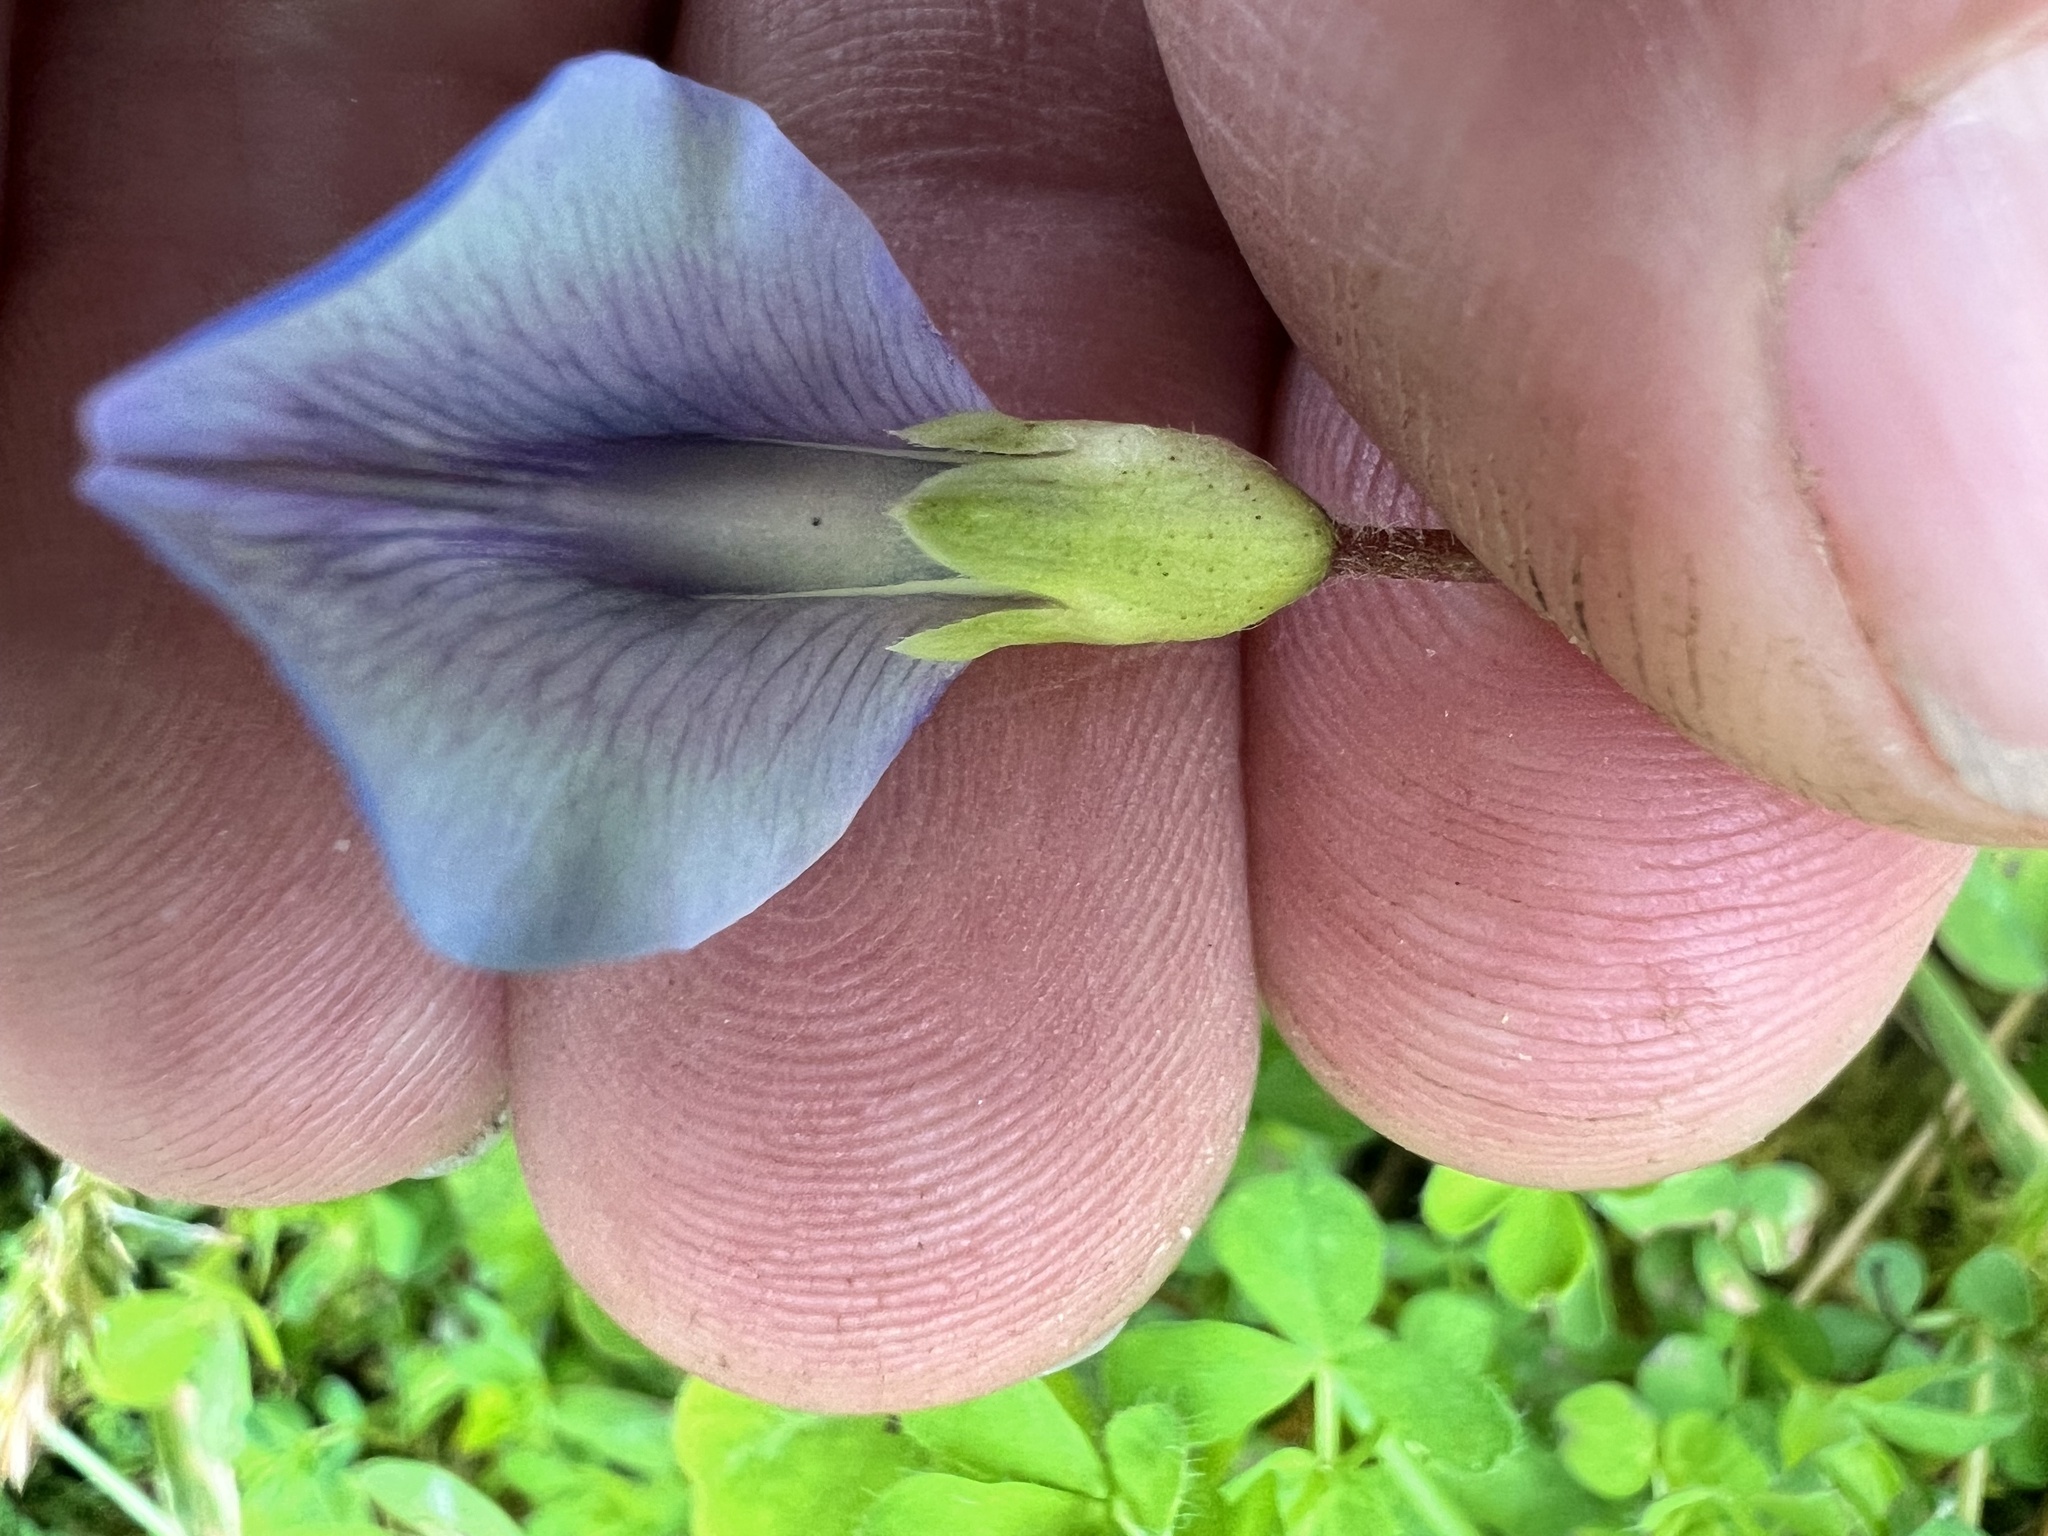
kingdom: Plantae
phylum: Tracheophyta
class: Magnoliopsida
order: Fabales
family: Fabaceae
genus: Parochetus
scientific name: Parochetus communis
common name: Blue oxalis
